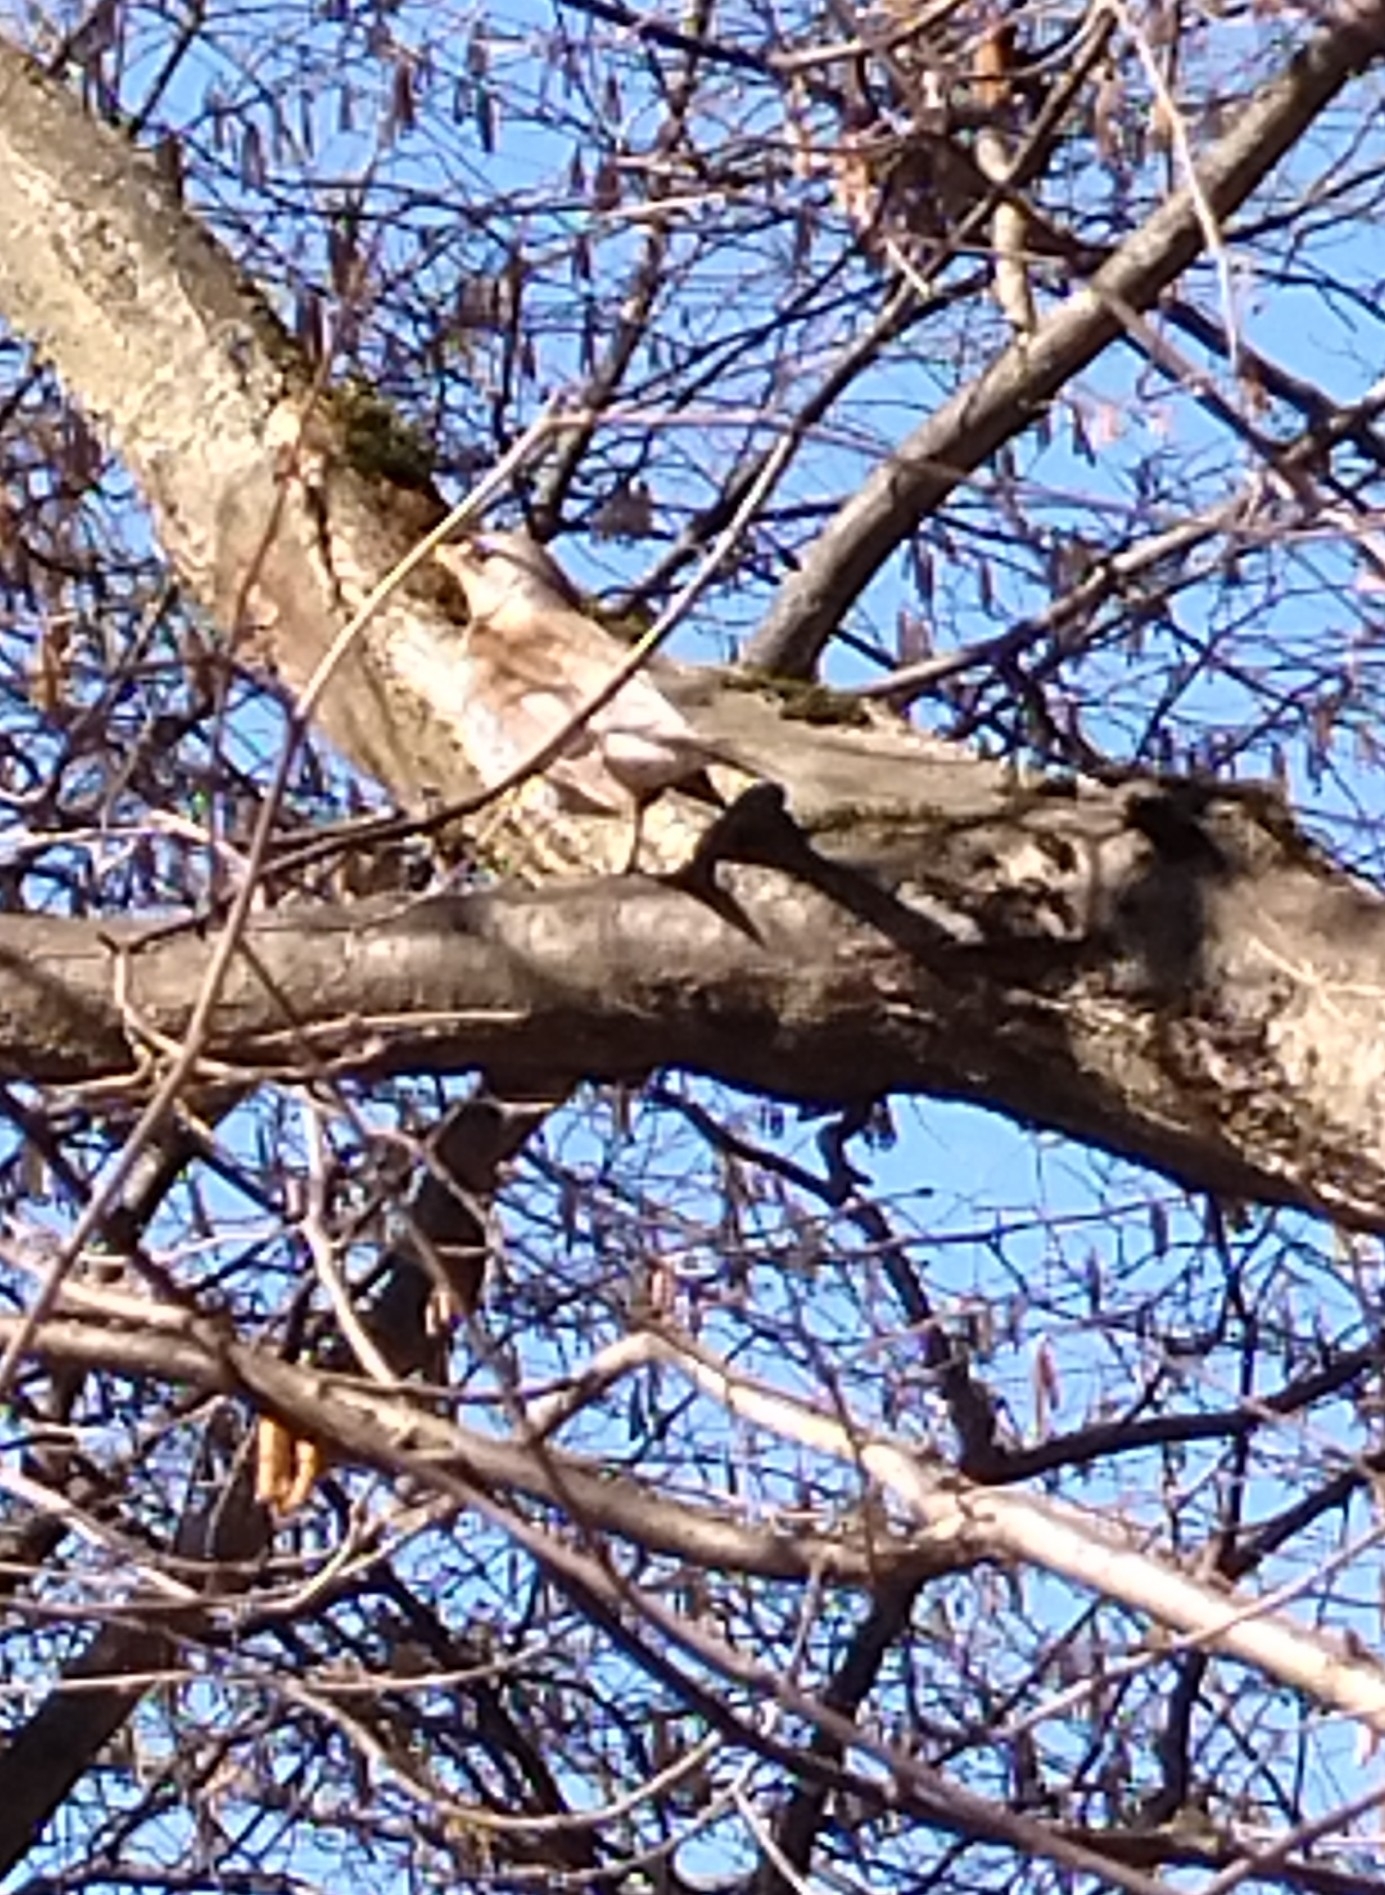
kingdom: Animalia
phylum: Chordata
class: Aves
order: Passeriformes
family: Turdidae
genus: Turdus
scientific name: Turdus pilaris
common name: Fieldfare
